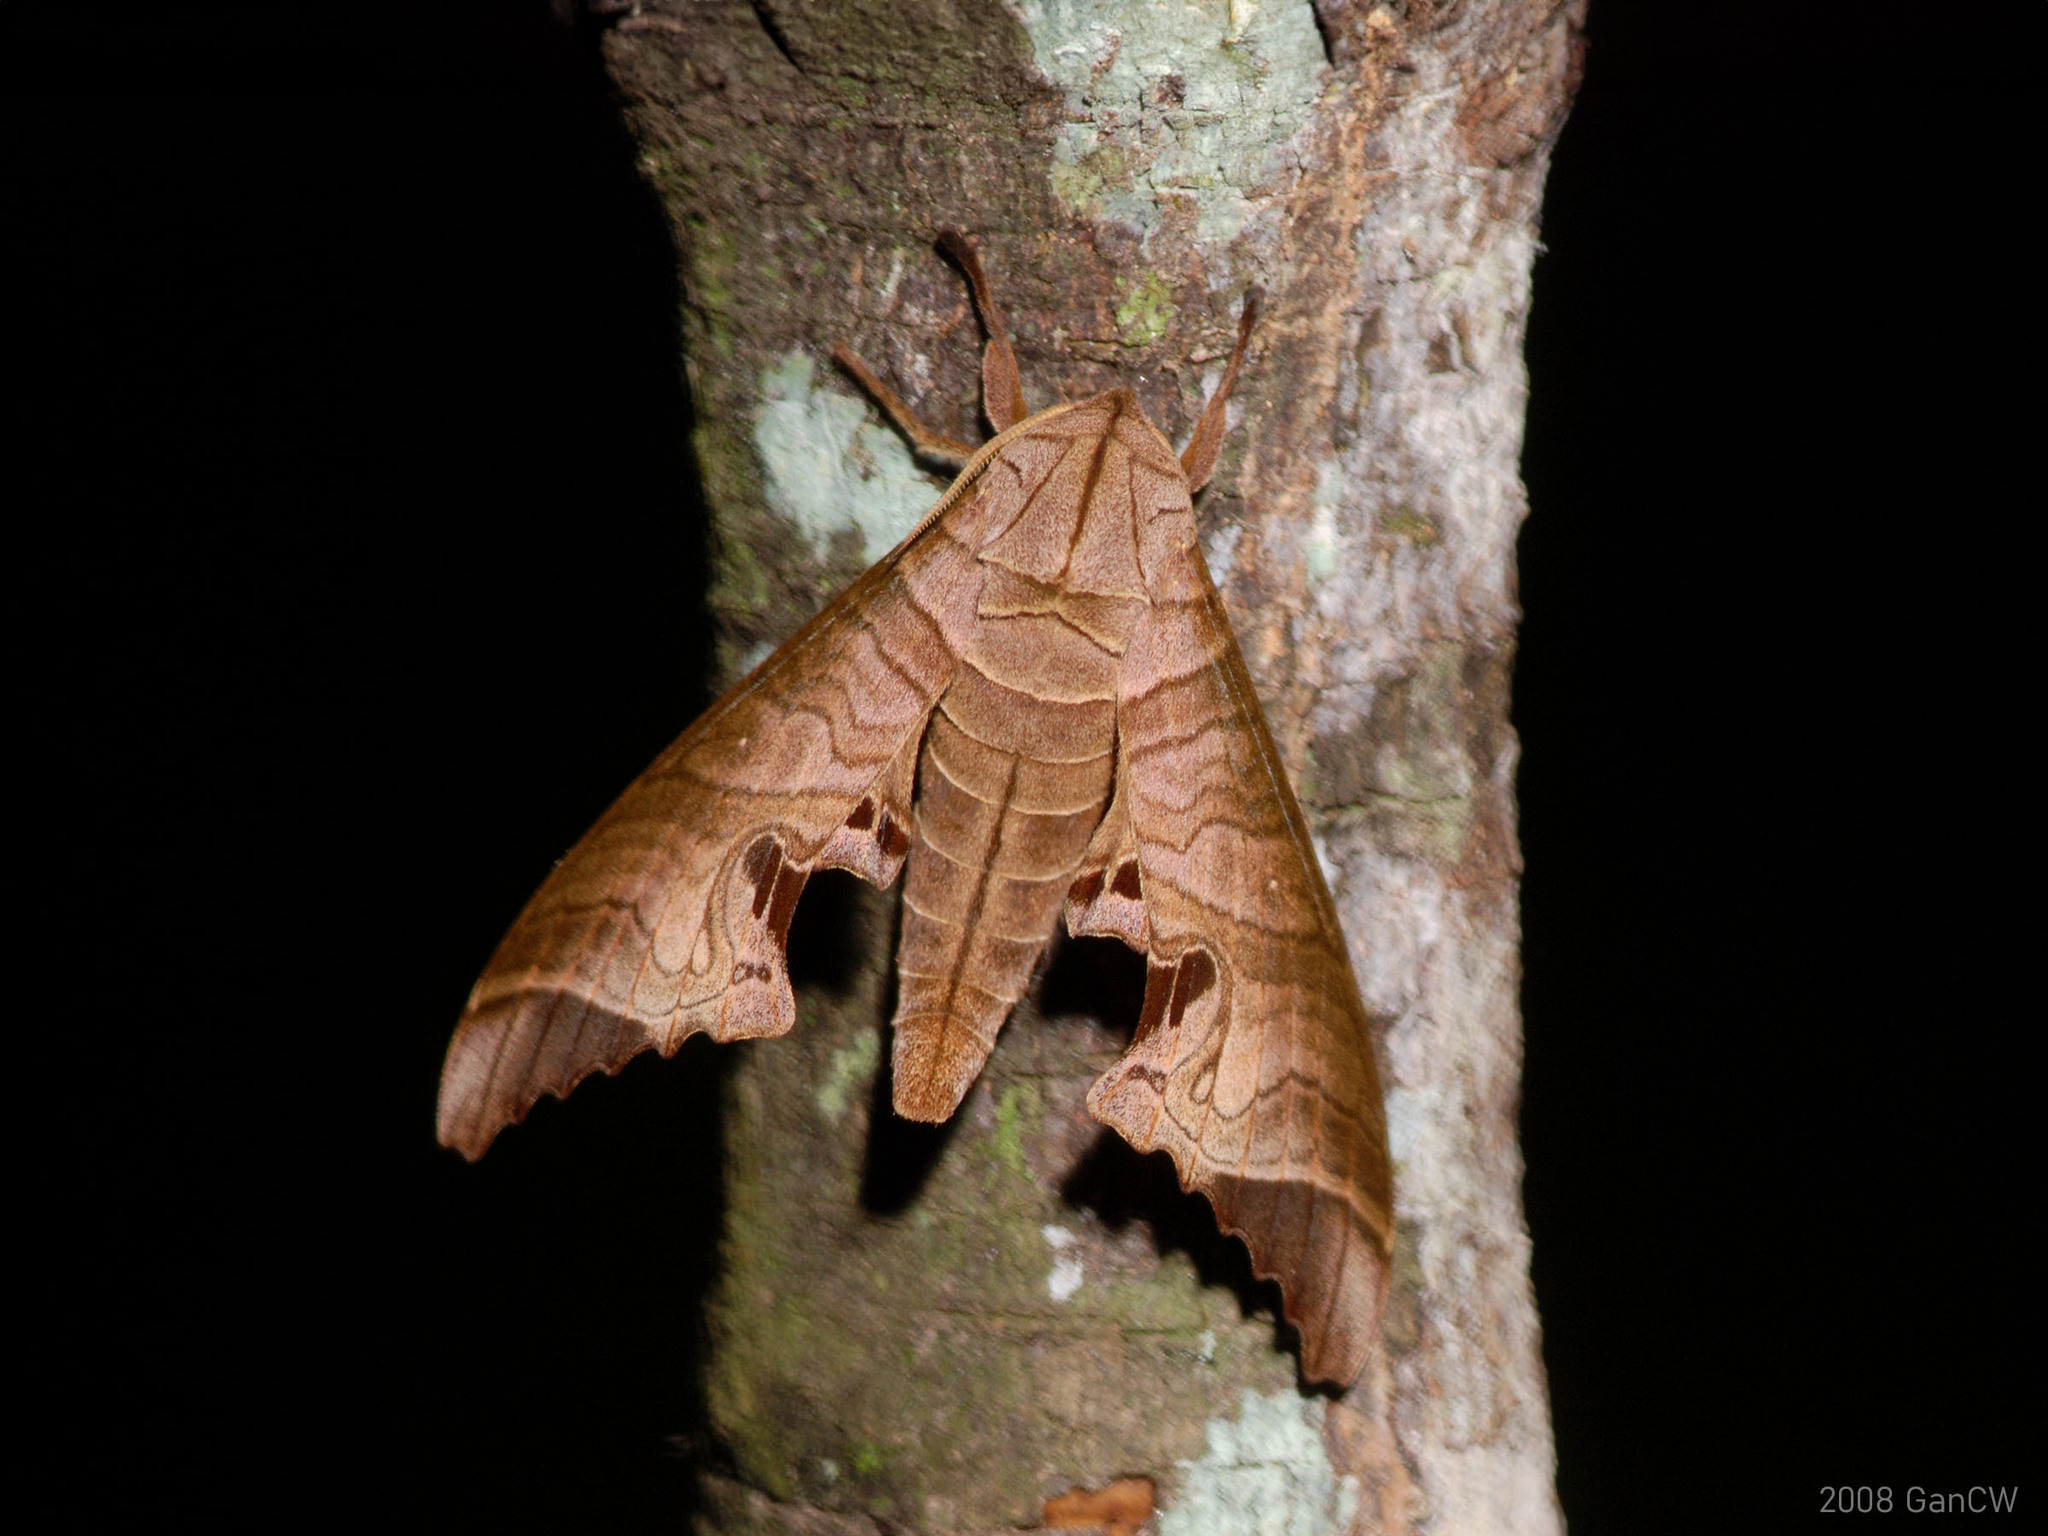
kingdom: Animalia
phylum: Arthropoda
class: Insecta
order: Lepidoptera
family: Sphingidae
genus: Marumba
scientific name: Marumba spectabilis
